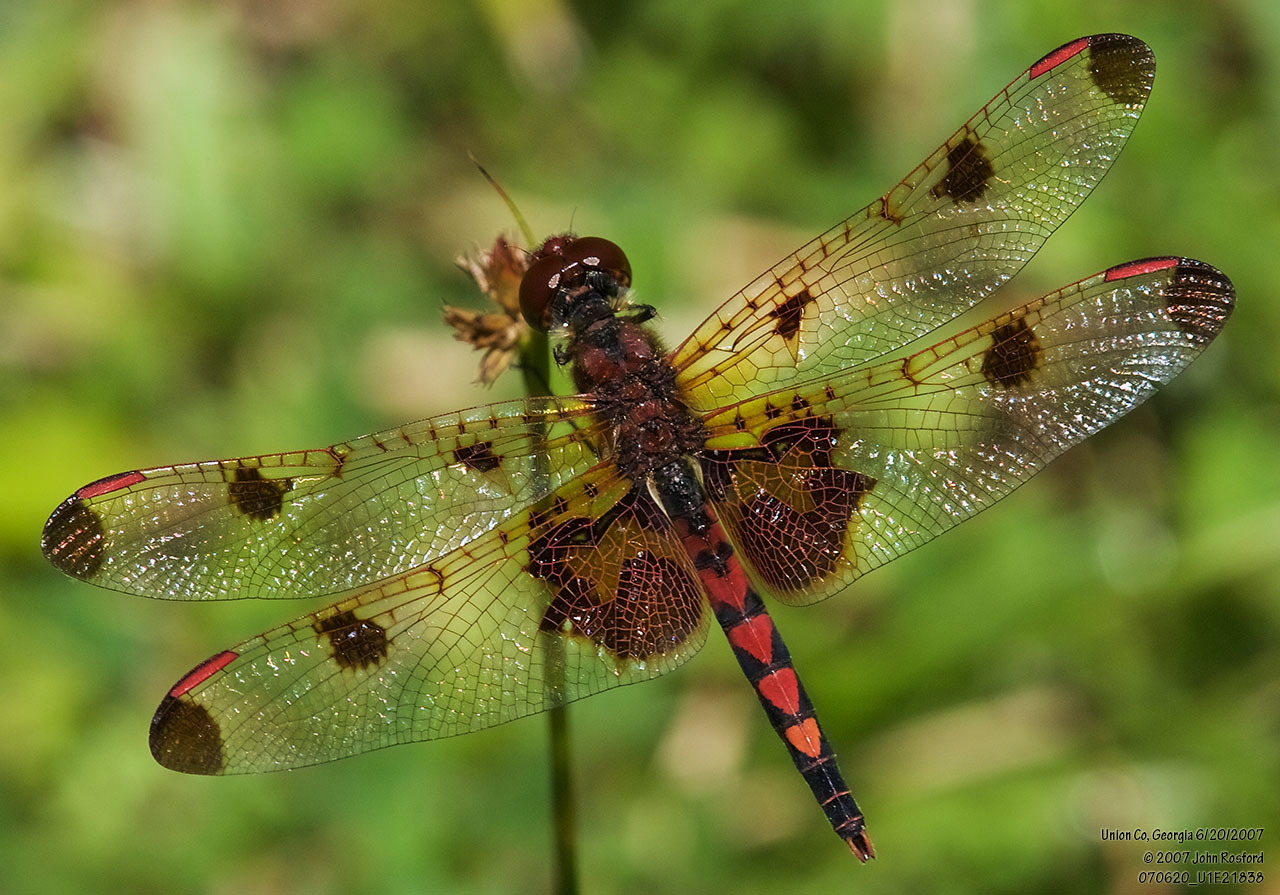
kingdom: Animalia
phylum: Arthropoda
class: Insecta
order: Odonata
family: Libellulidae
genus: Celithemis
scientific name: Celithemis elisa
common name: Calico pennant
